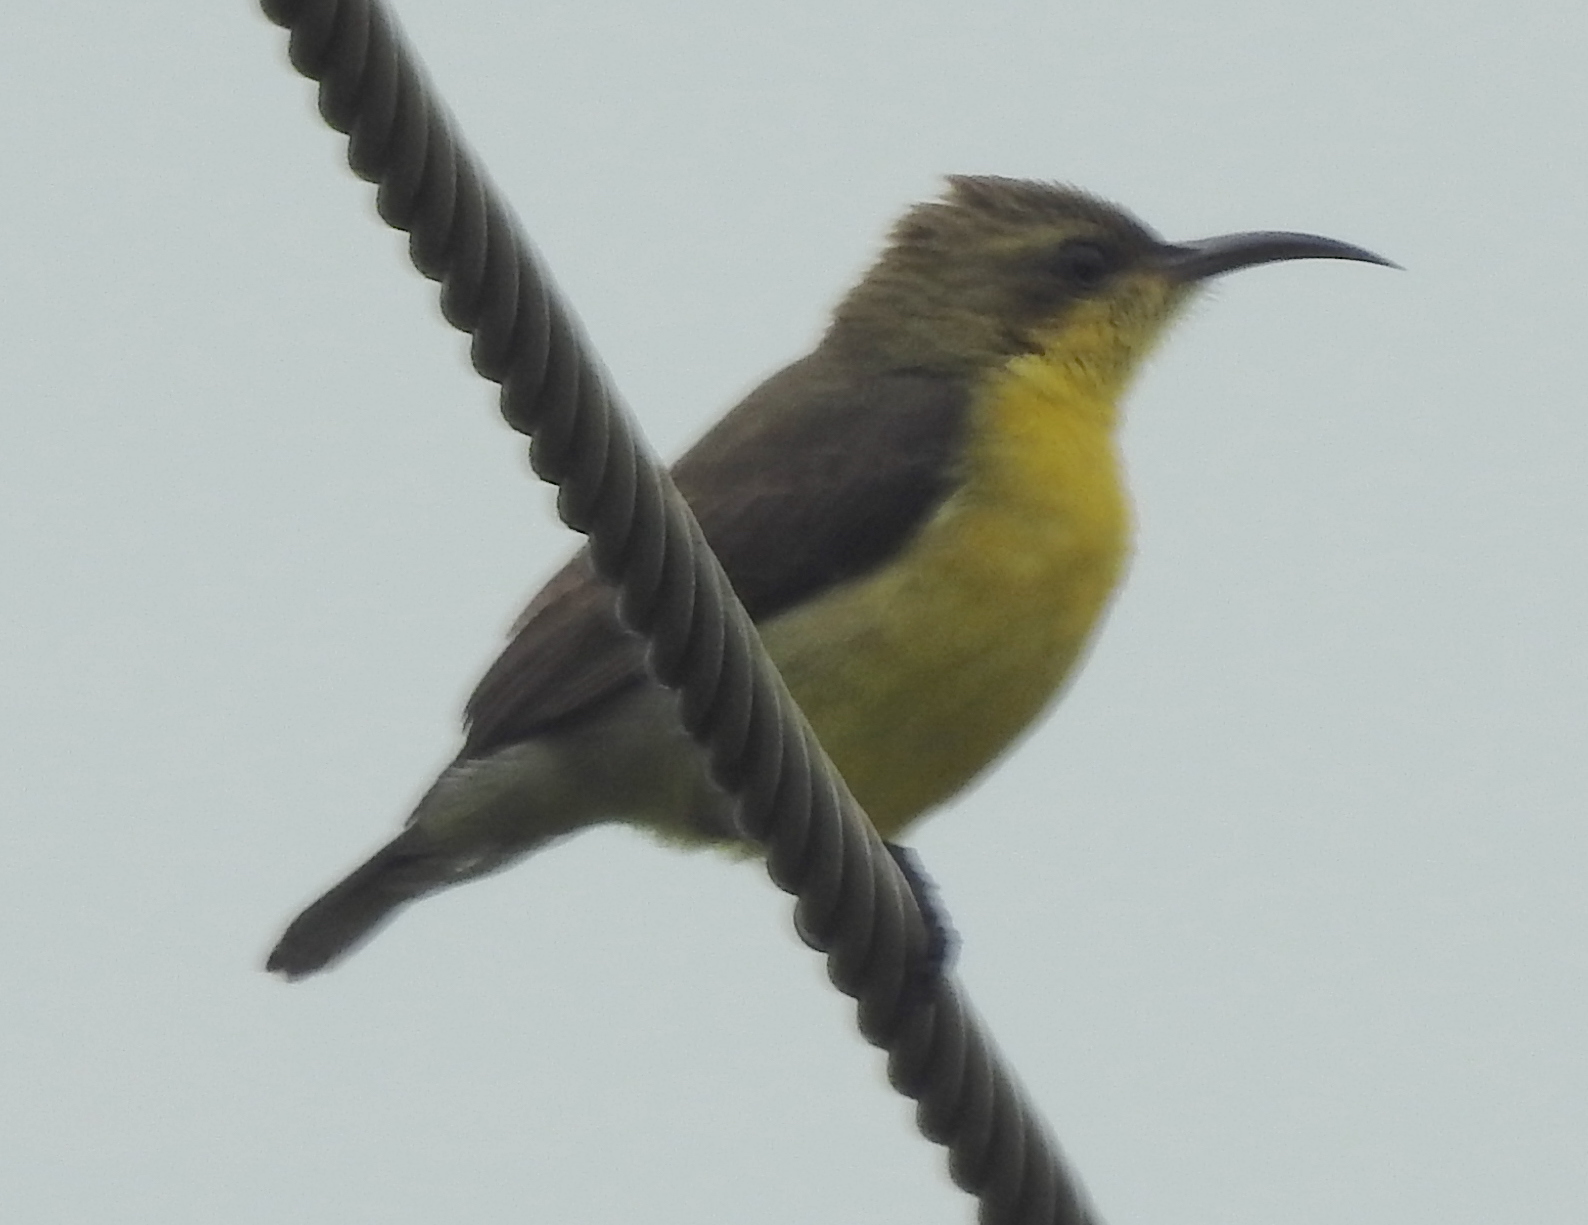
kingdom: Animalia
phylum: Chordata
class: Aves
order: Passeriformes
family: Nectariniidae
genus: Cinnyris
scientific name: Cinnyris asiaticus
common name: Purple sunbird
